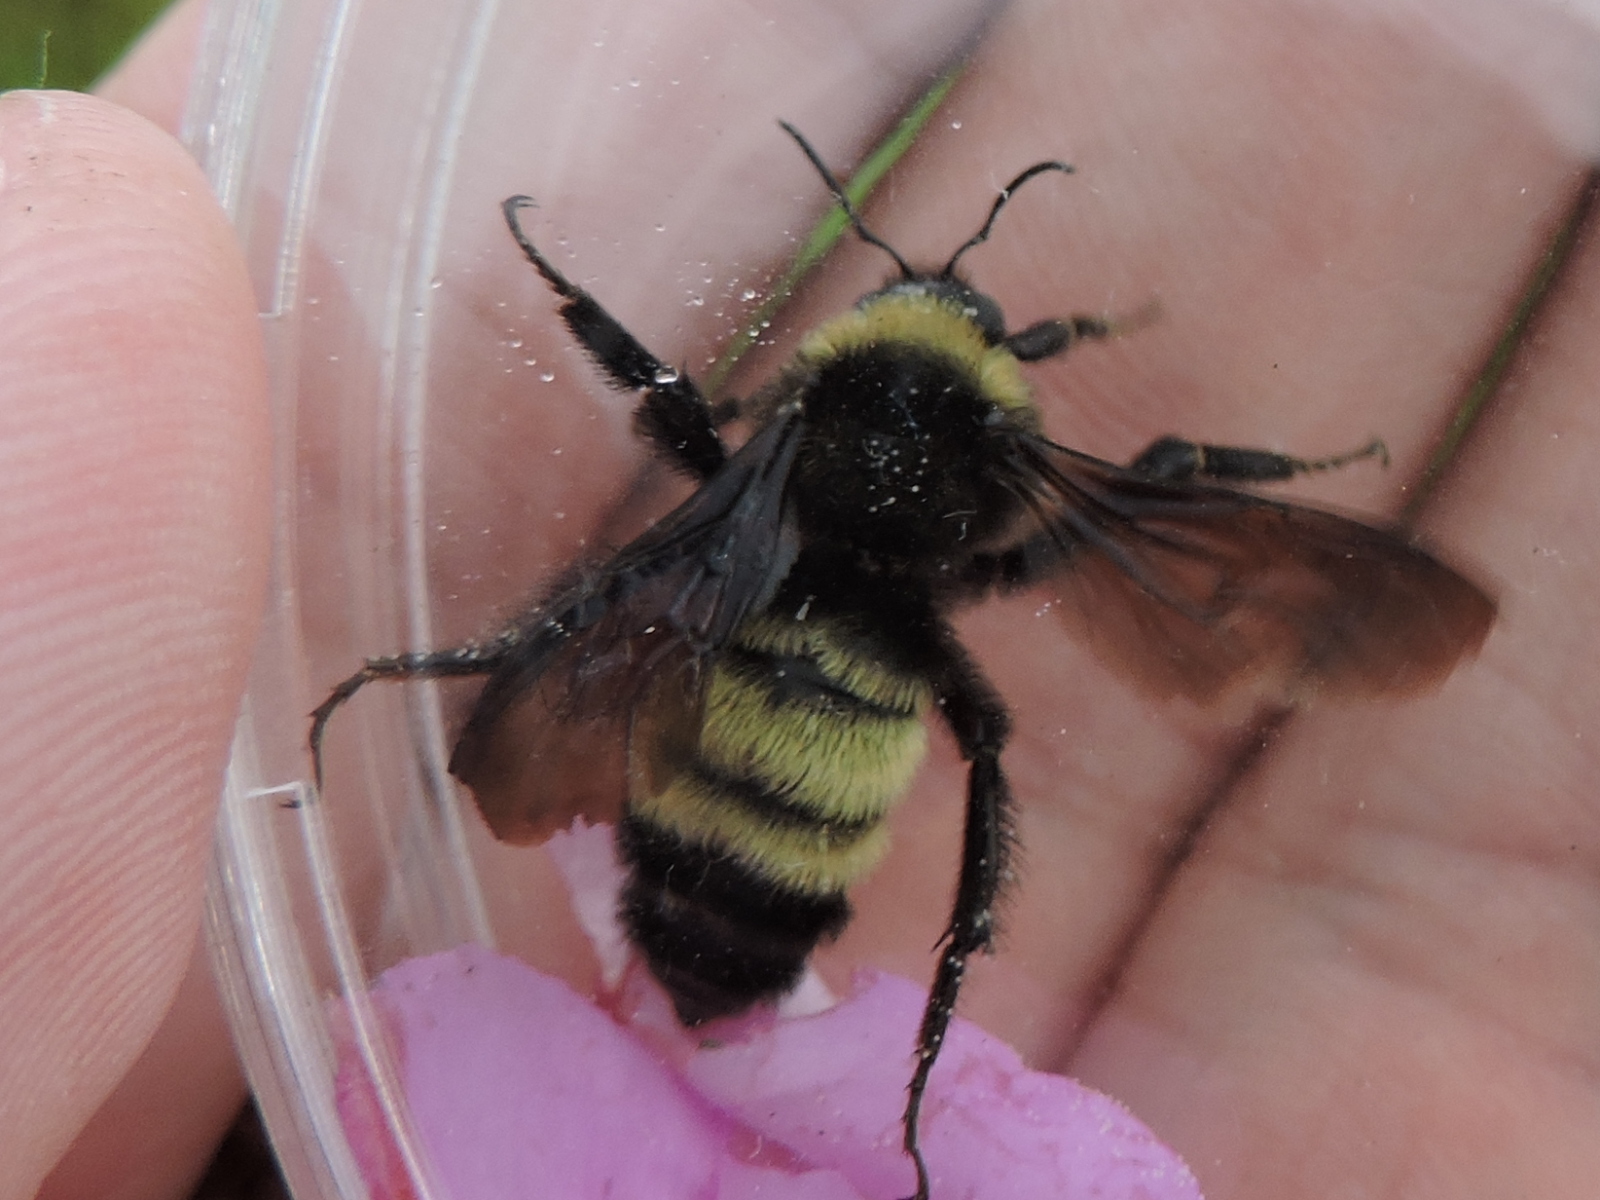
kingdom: Animalia
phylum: Arthropoda
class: Insecta
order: Hymenoptera
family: Apidae
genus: Bombus
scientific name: Bombus pensylvanicus
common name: Bumble bee
